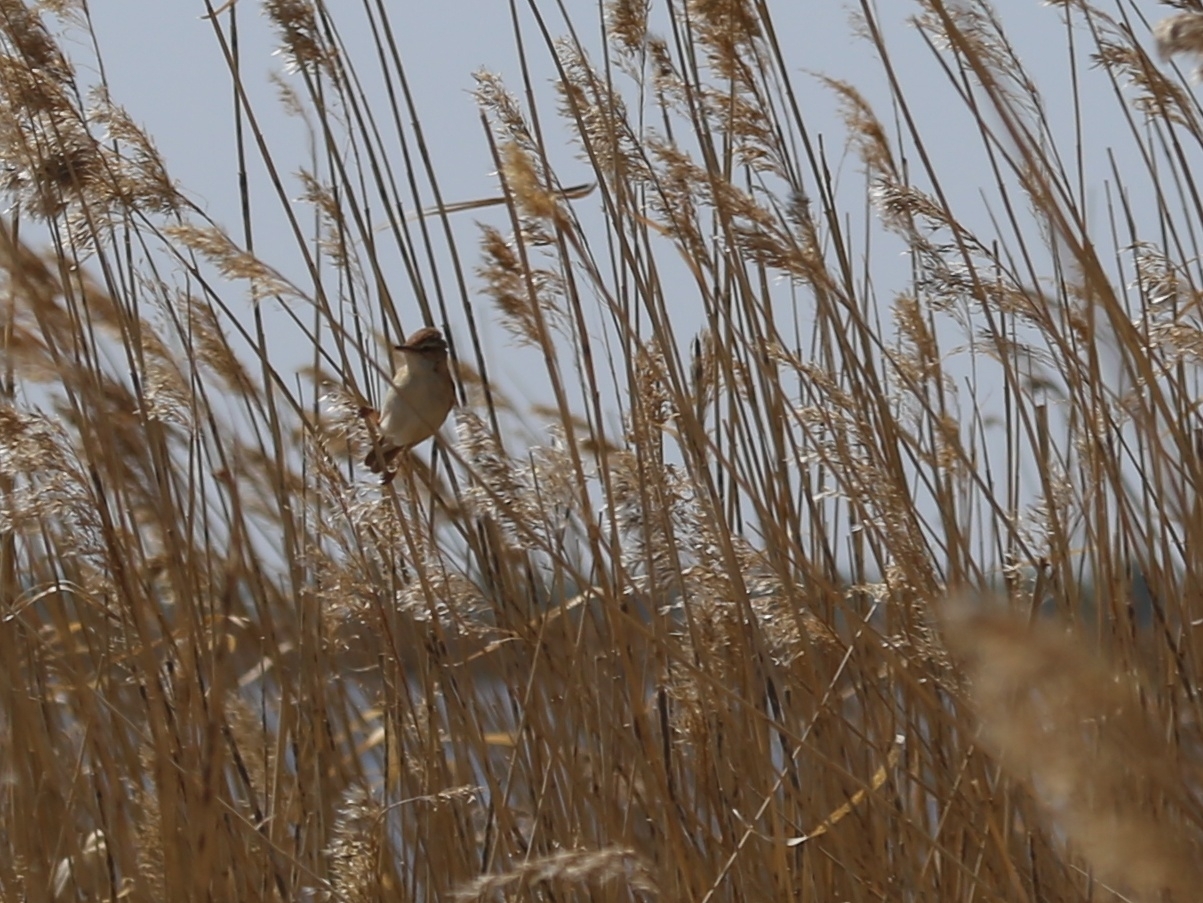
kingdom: Animalia
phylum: Chordata
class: Aves
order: Passeriformes
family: Acrocephalidae
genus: Acrocephalus
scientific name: Acrocephalus agricola
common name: Paddyfield warbler
